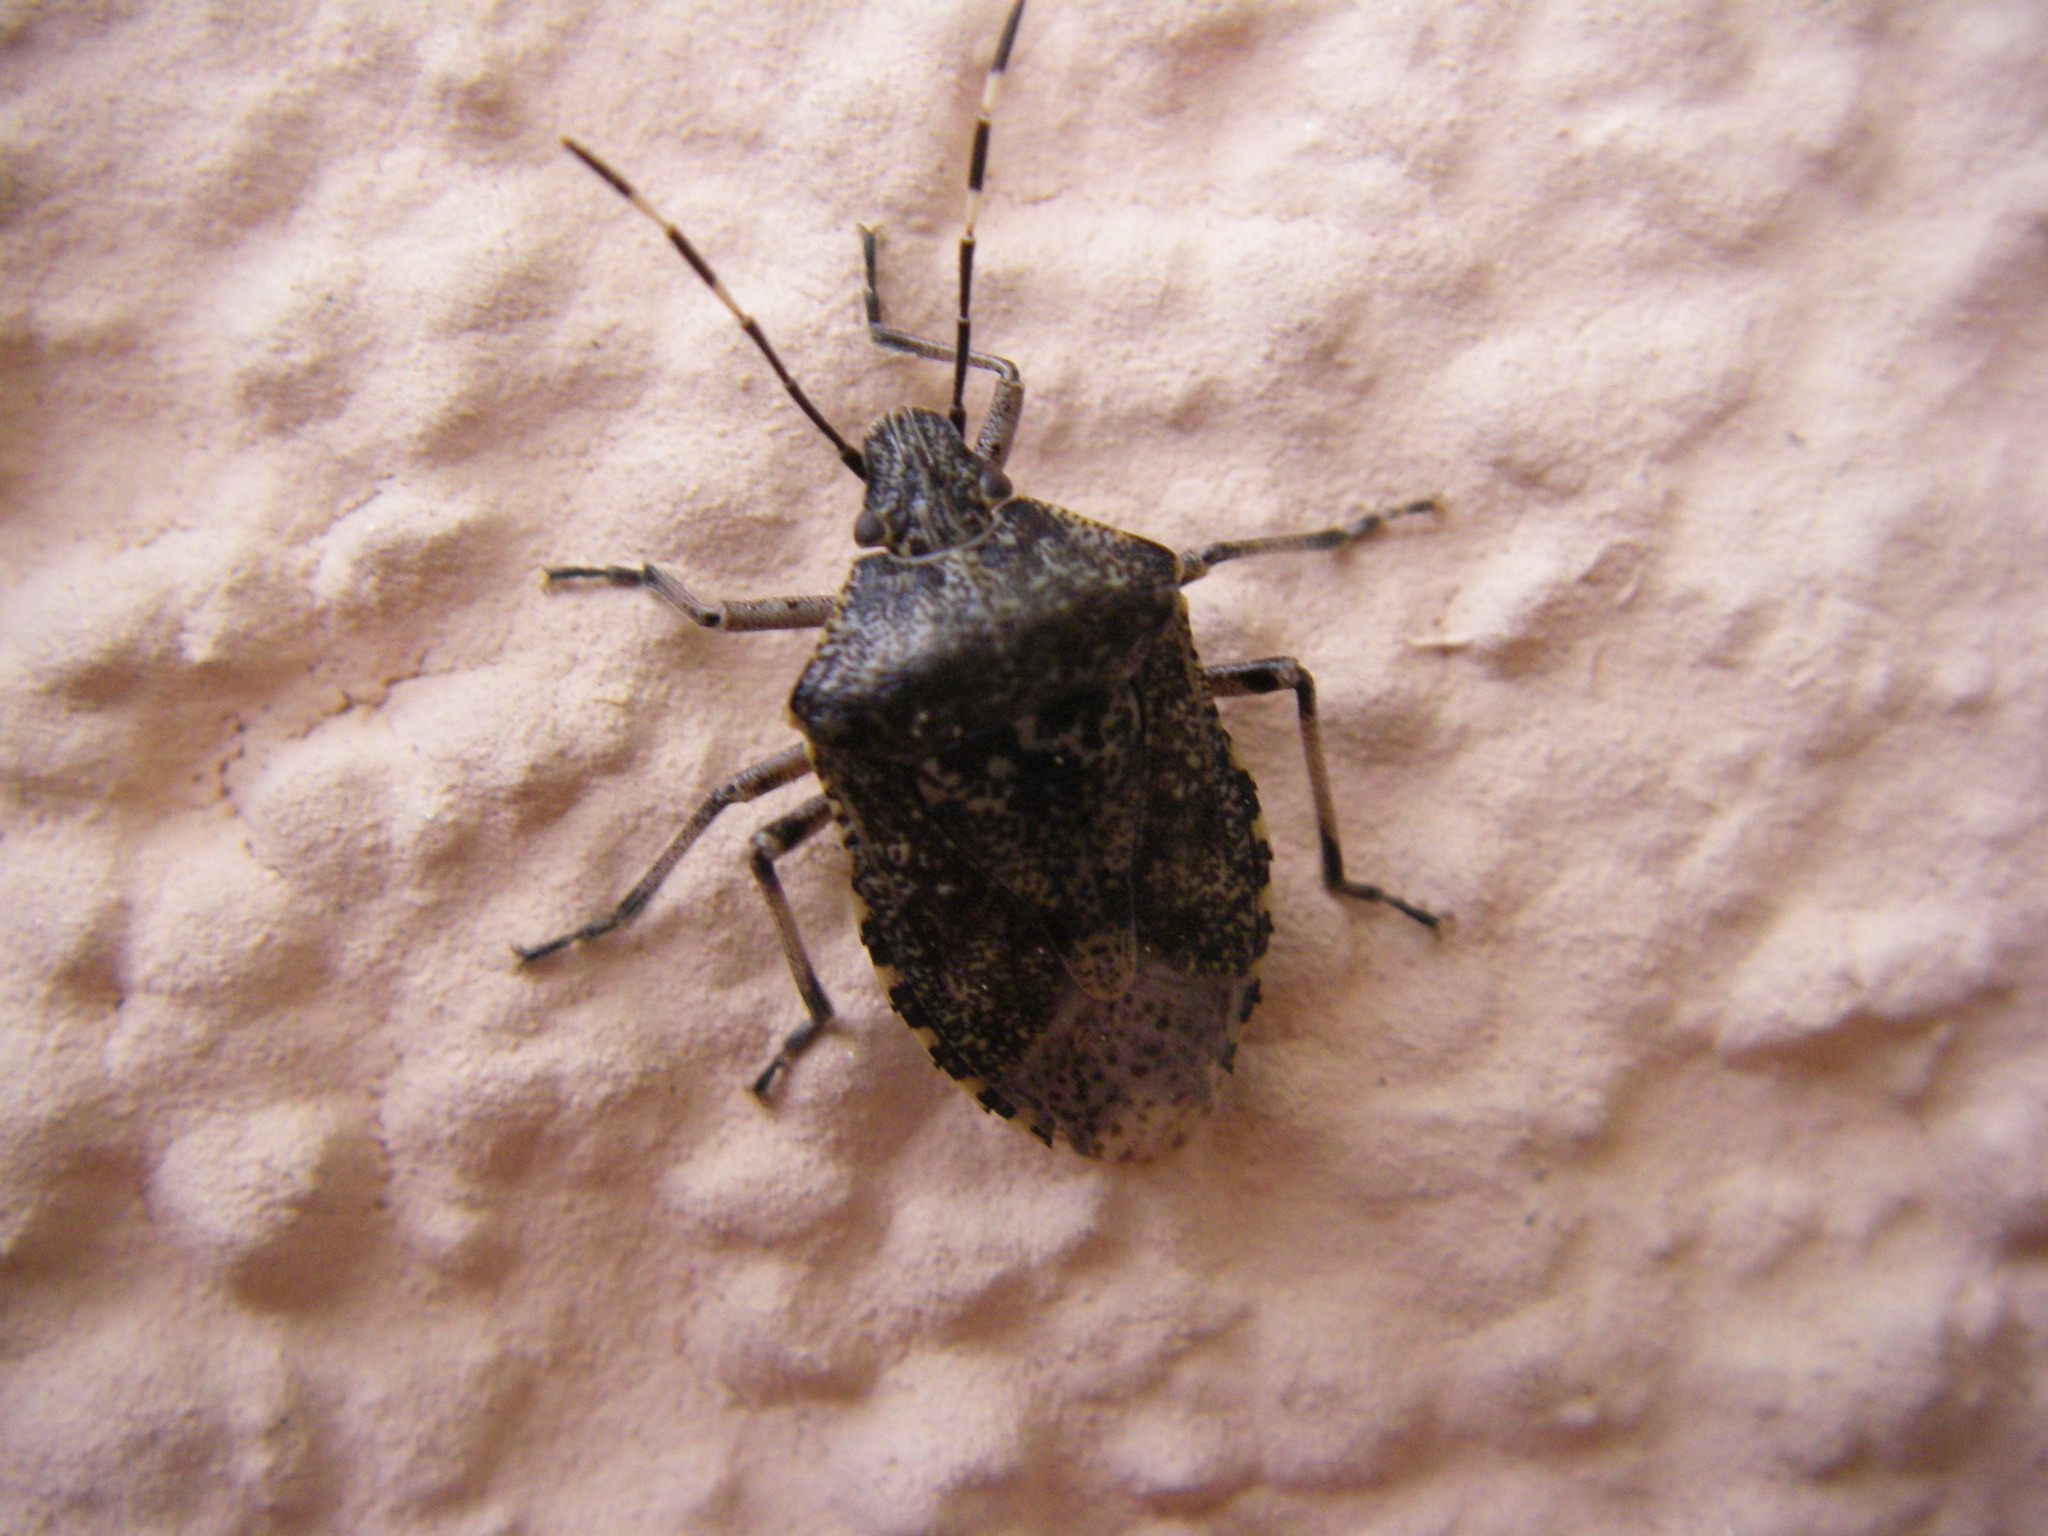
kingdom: Animalia
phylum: Arthropoda
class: Insecta
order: Hemiptera
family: Pentatomidae
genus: Rhaphigaster
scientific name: Rhaphigaster nebulosa
